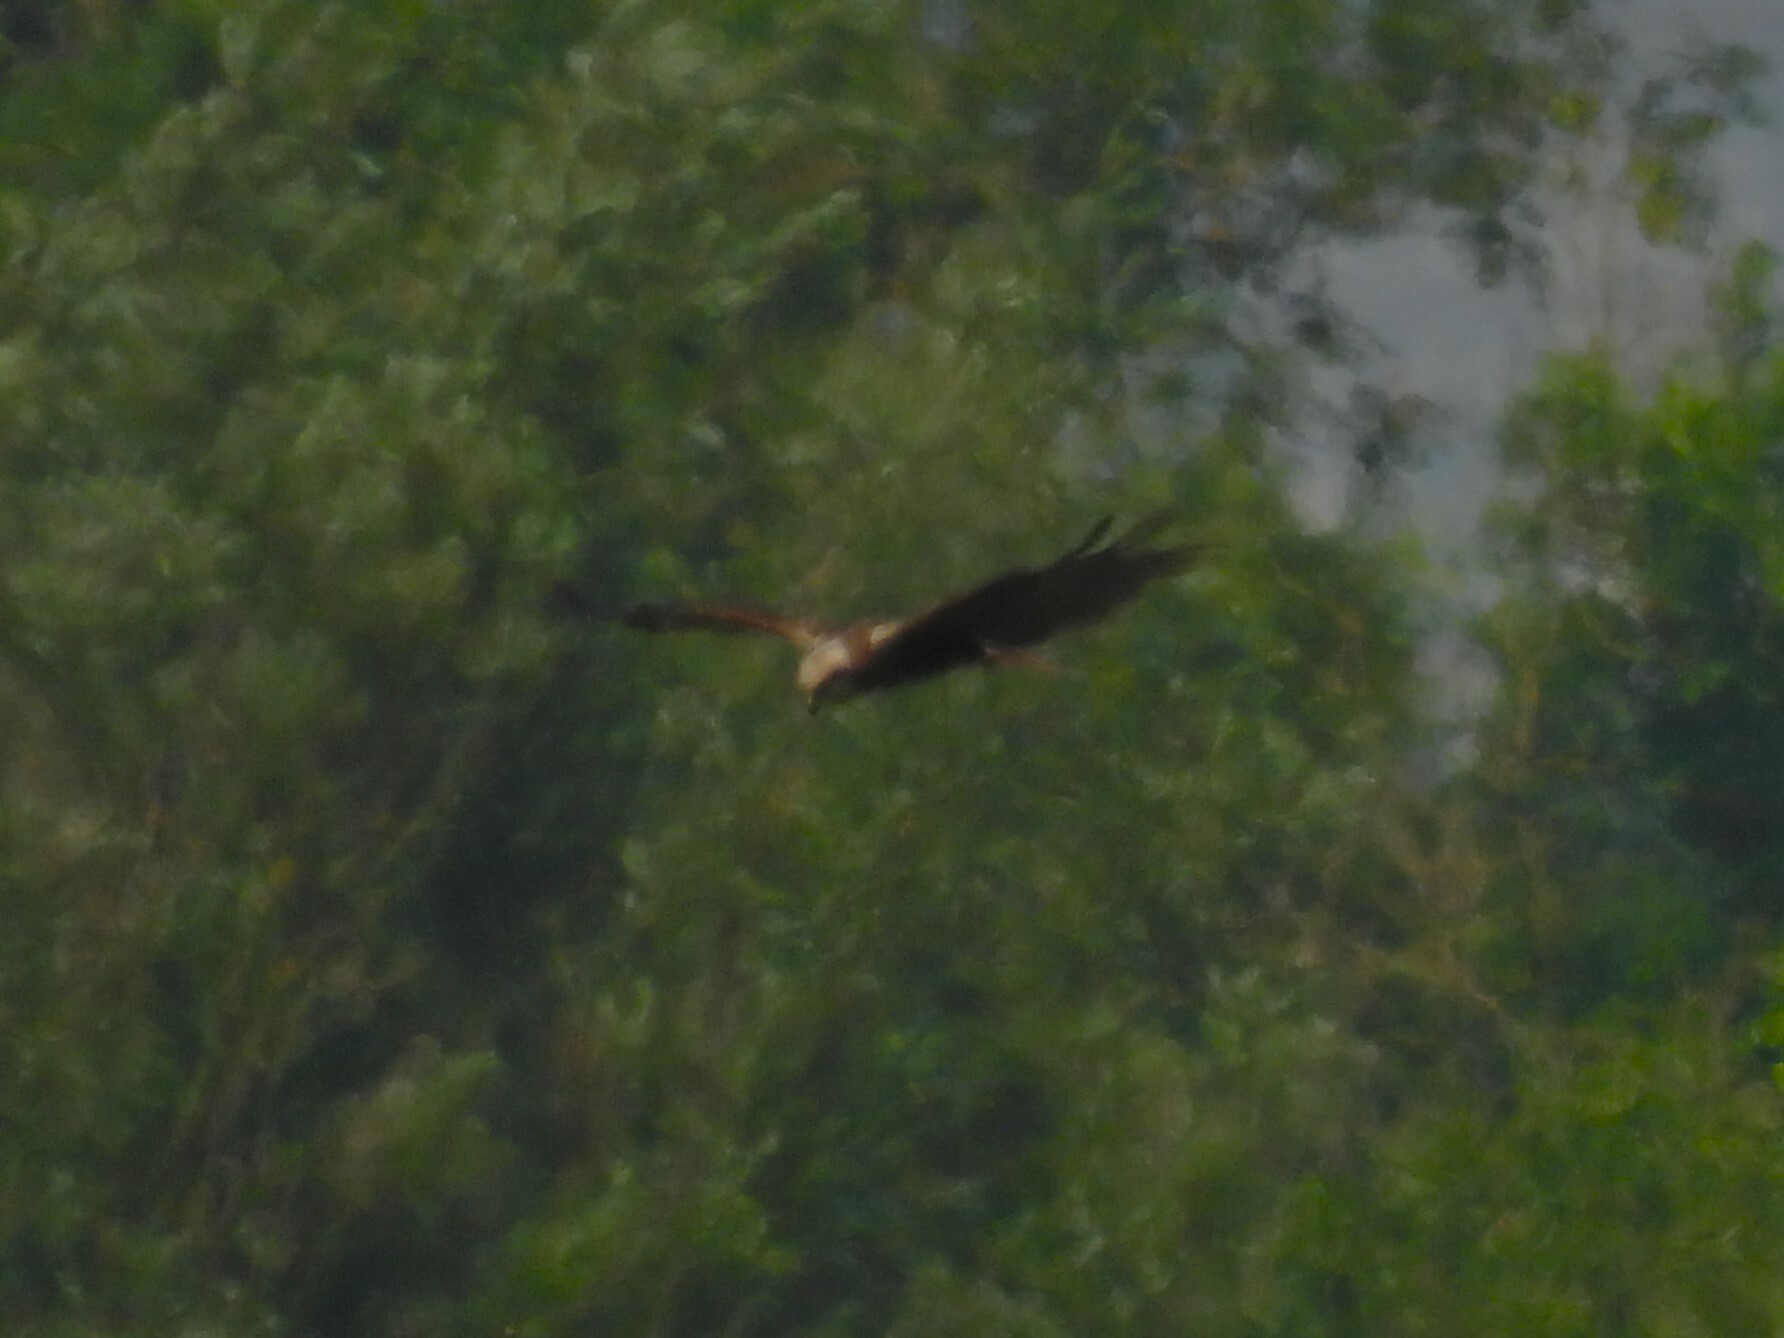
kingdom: Animalia
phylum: Chordata
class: Aves
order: Accipitriformes
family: Accipitridae
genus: Circus
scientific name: Circus aeruginosus
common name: Western marsh harrier
